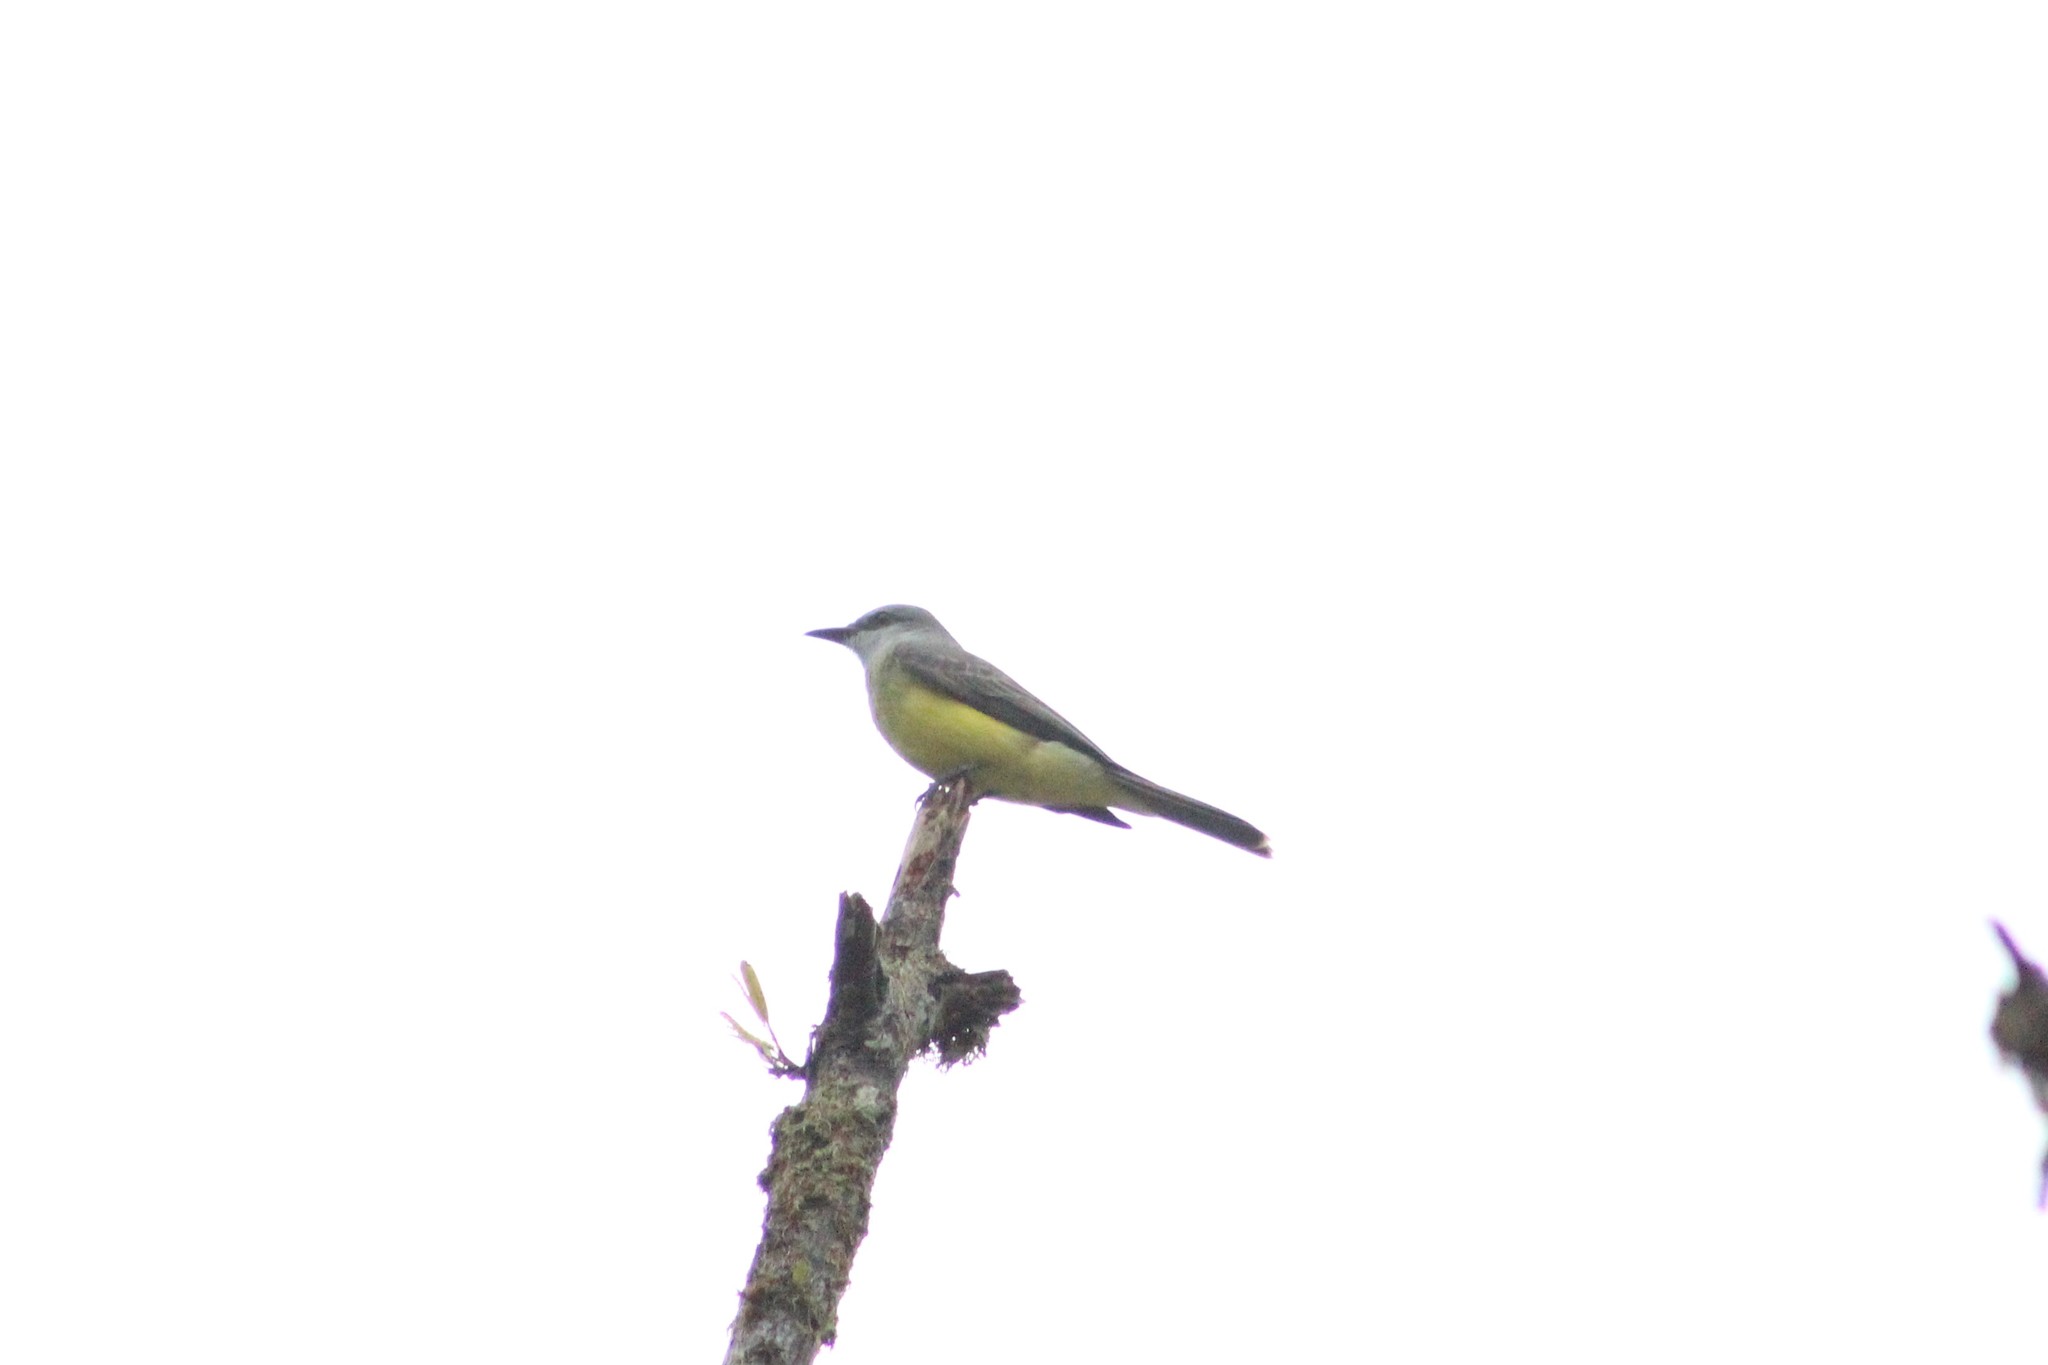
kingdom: Animalia
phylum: Chordata
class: Aves
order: Passeriformes
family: Tyrannidae
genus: Tyrannus
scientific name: Tyrannus melancholicus
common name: Tropical kingbird
